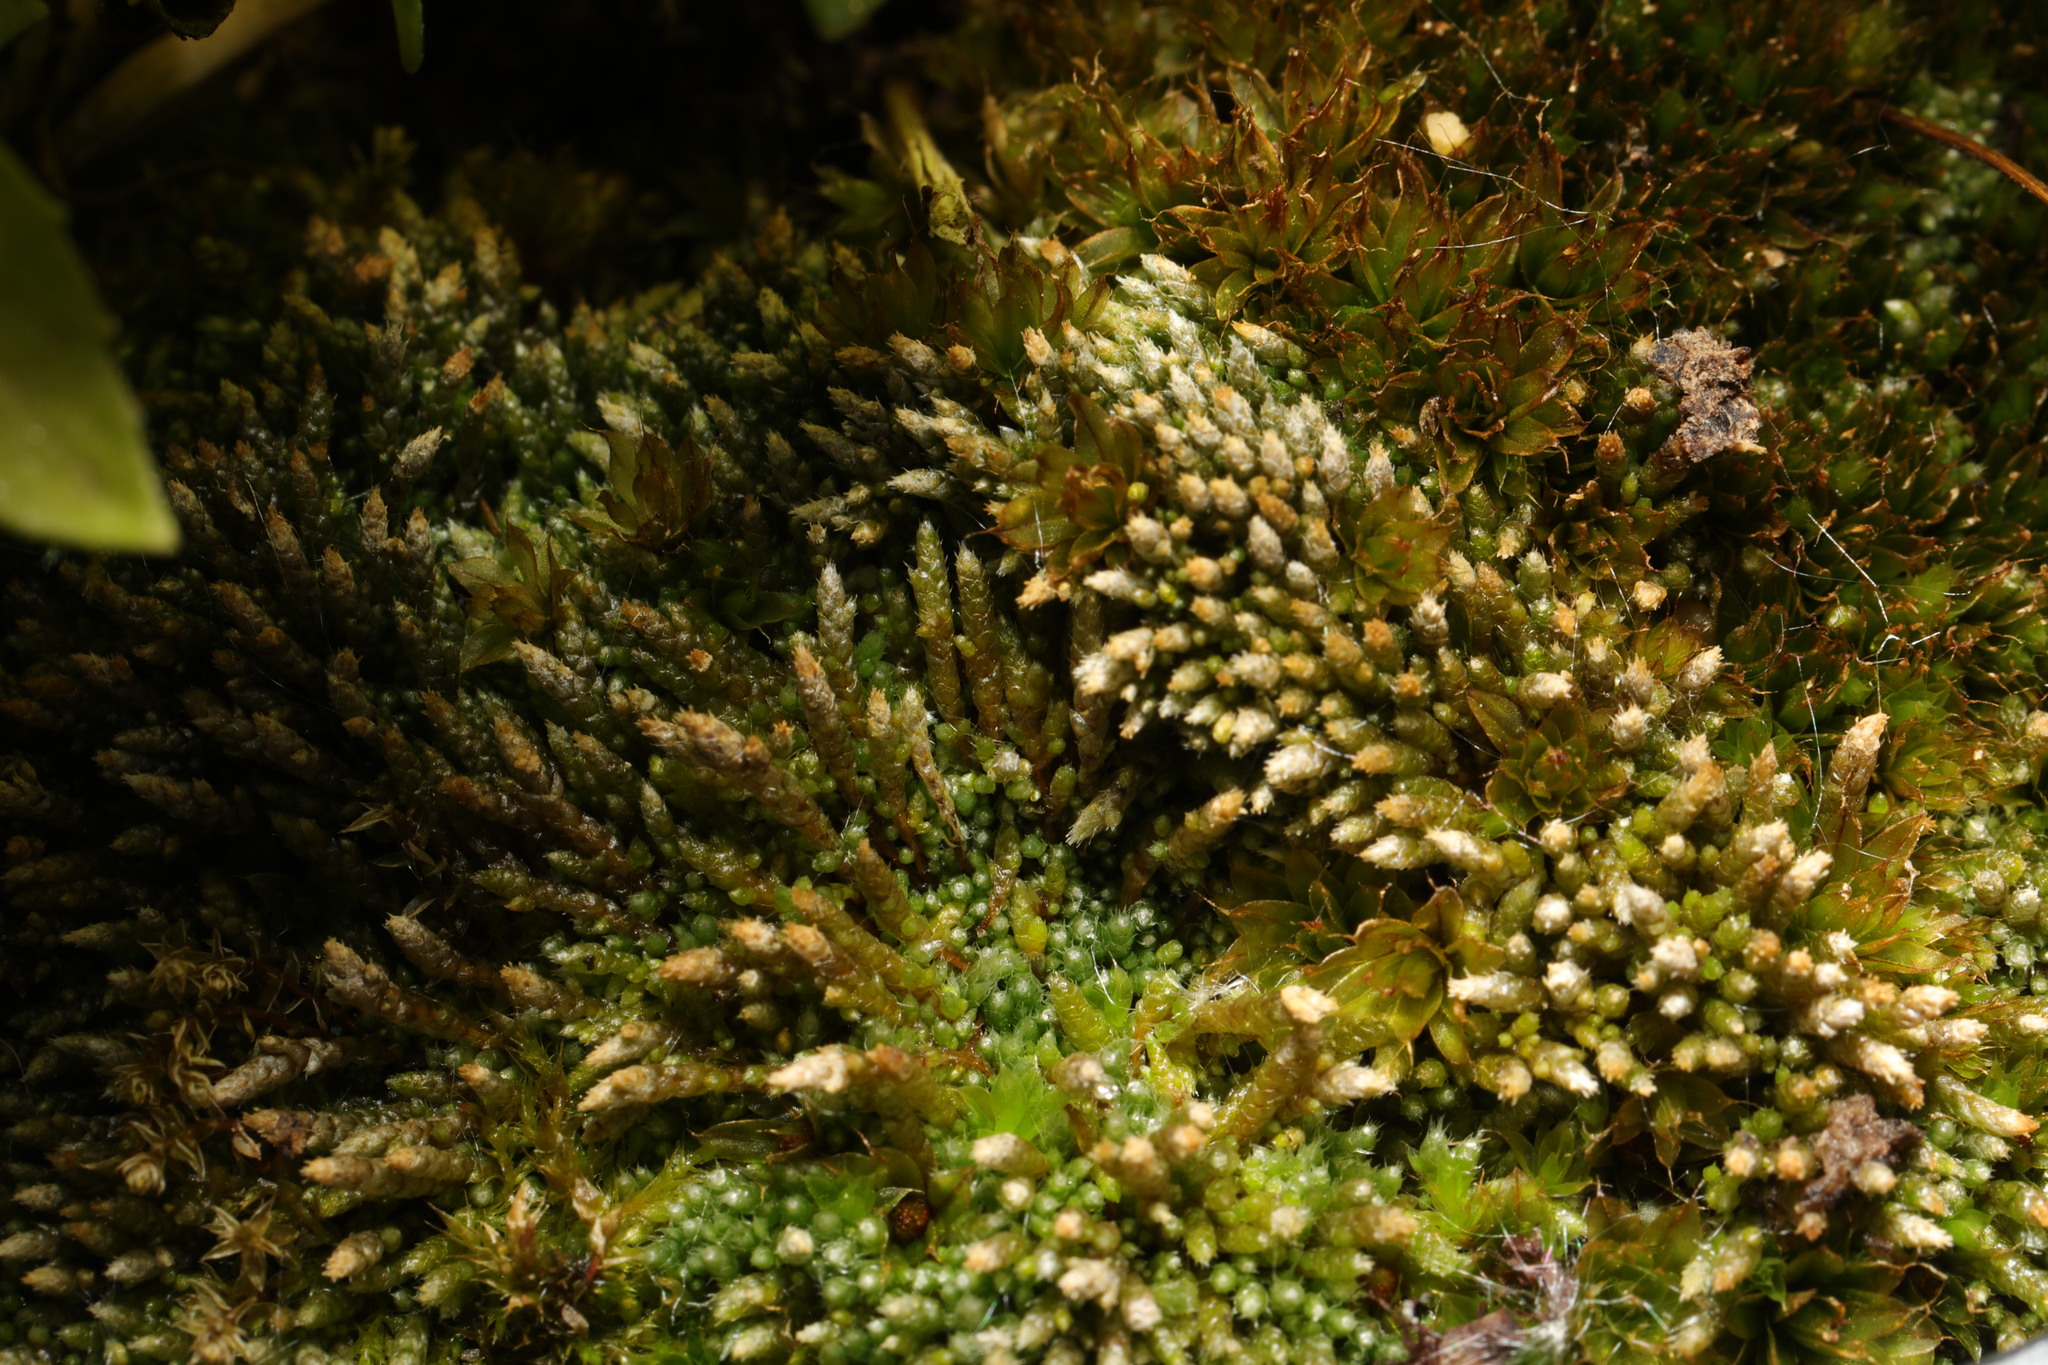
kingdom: Plantae
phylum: Bryophyta
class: Bryopsida
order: Bryales
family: Bryaceae
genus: Bryum
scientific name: Bryum argenteum
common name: Silver-moss
